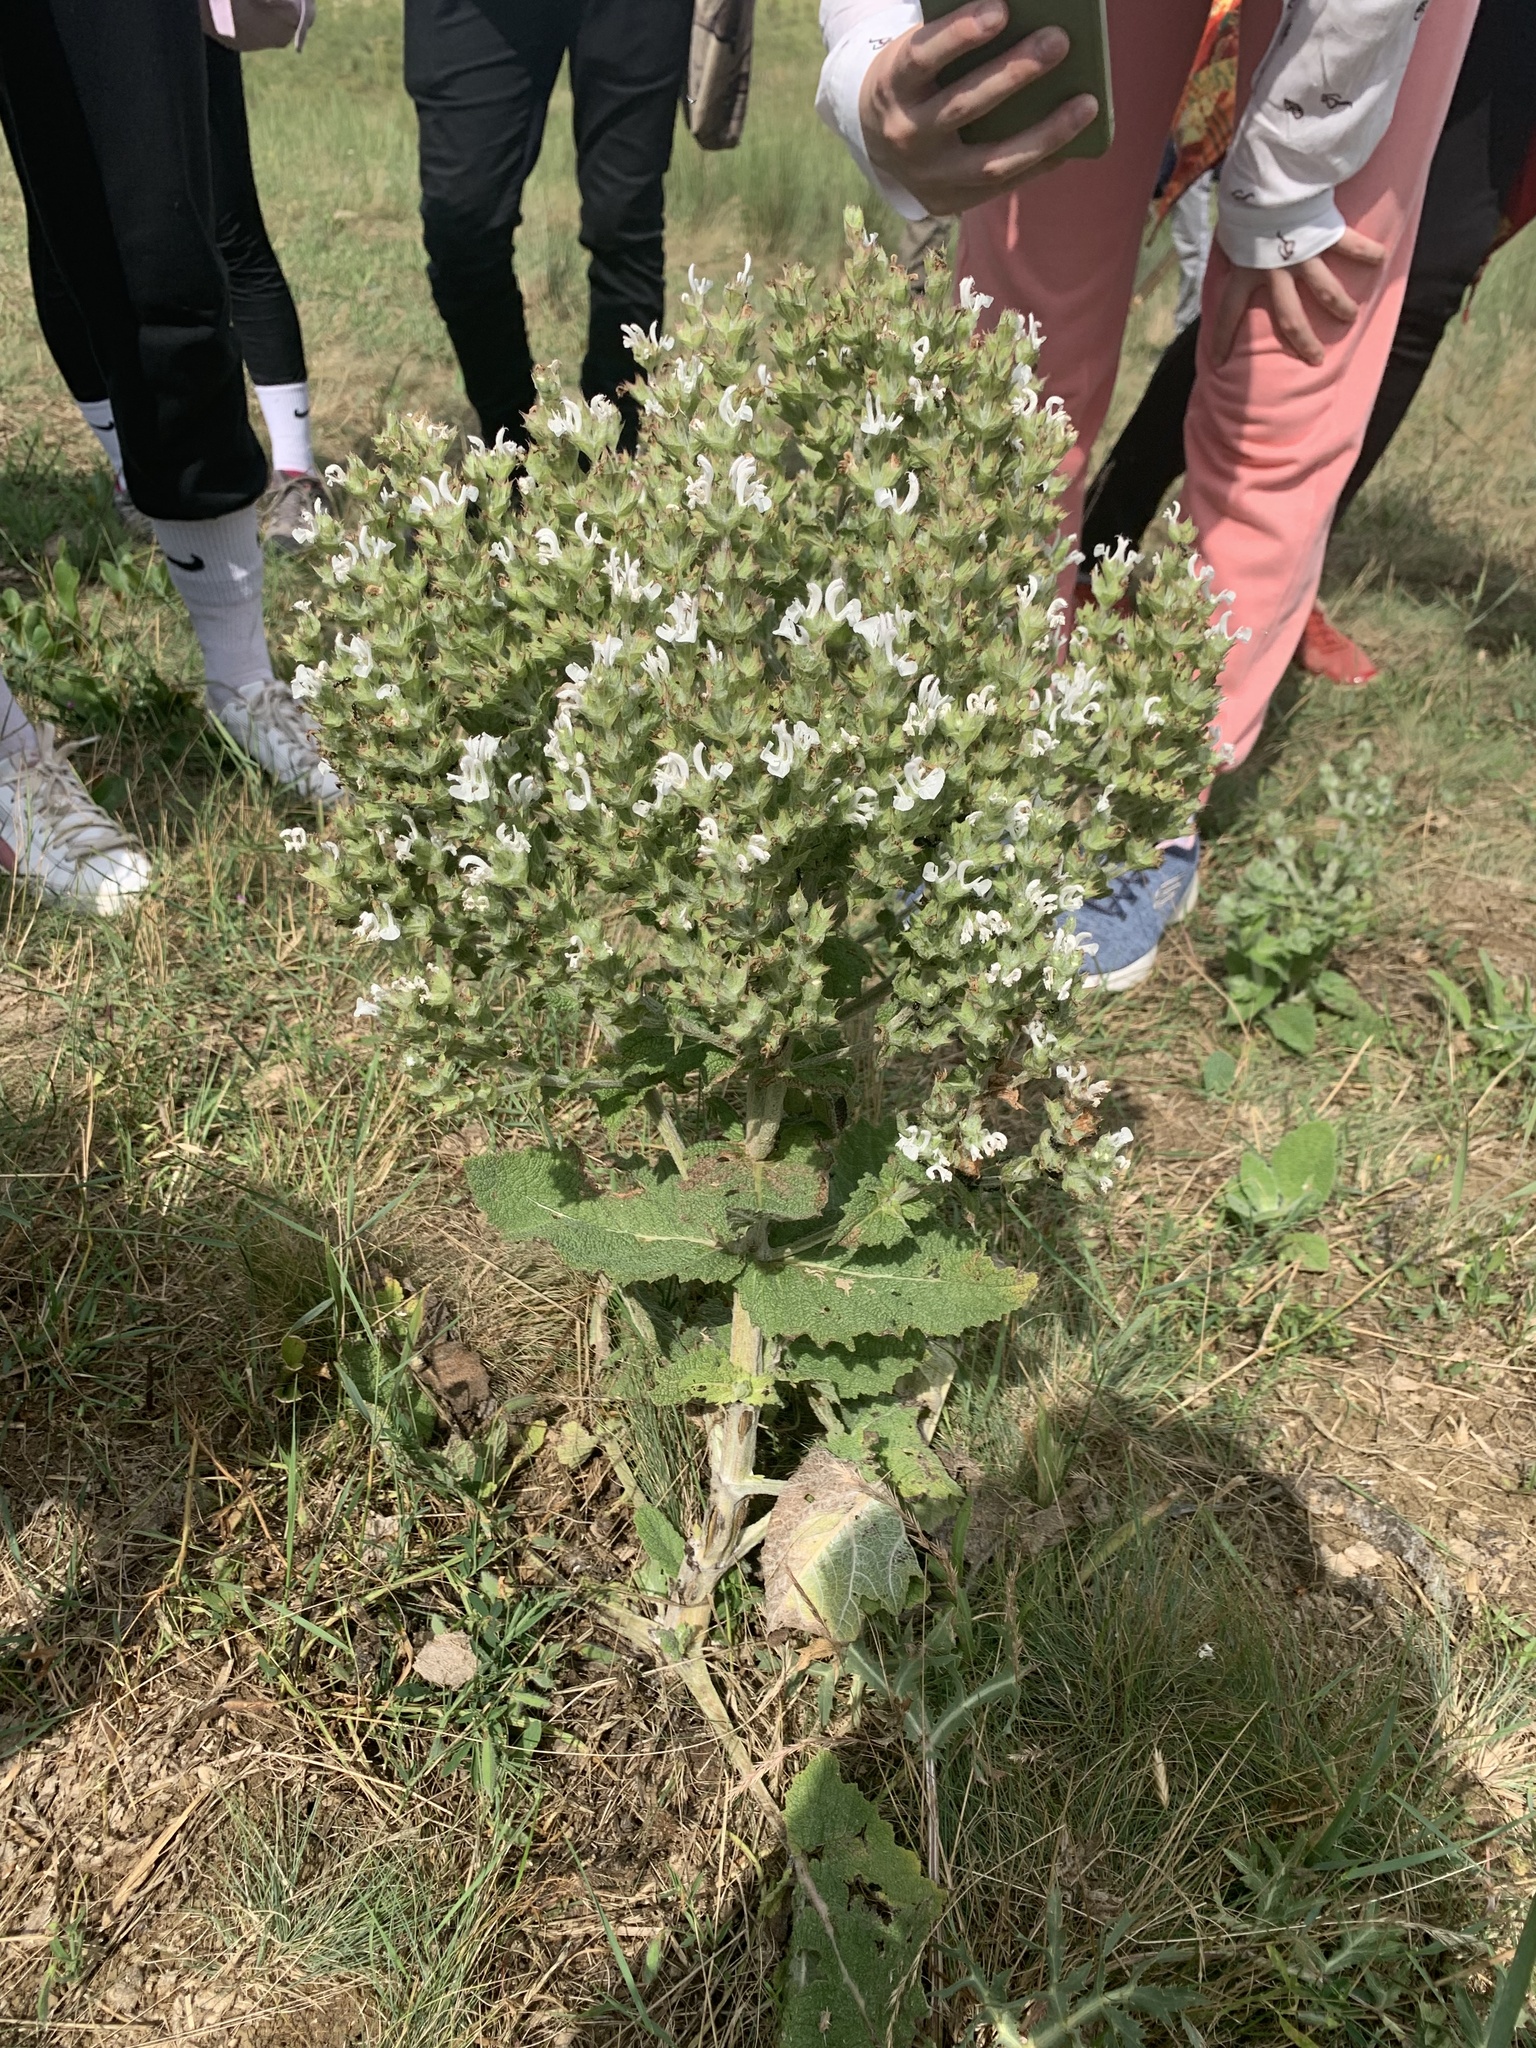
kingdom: Plantae
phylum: Tracheophyta
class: Magnoliopsida
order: Lamiales
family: Lamiaceae
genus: Salvia
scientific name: Salvia aethiopis
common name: Mediterranean sage
